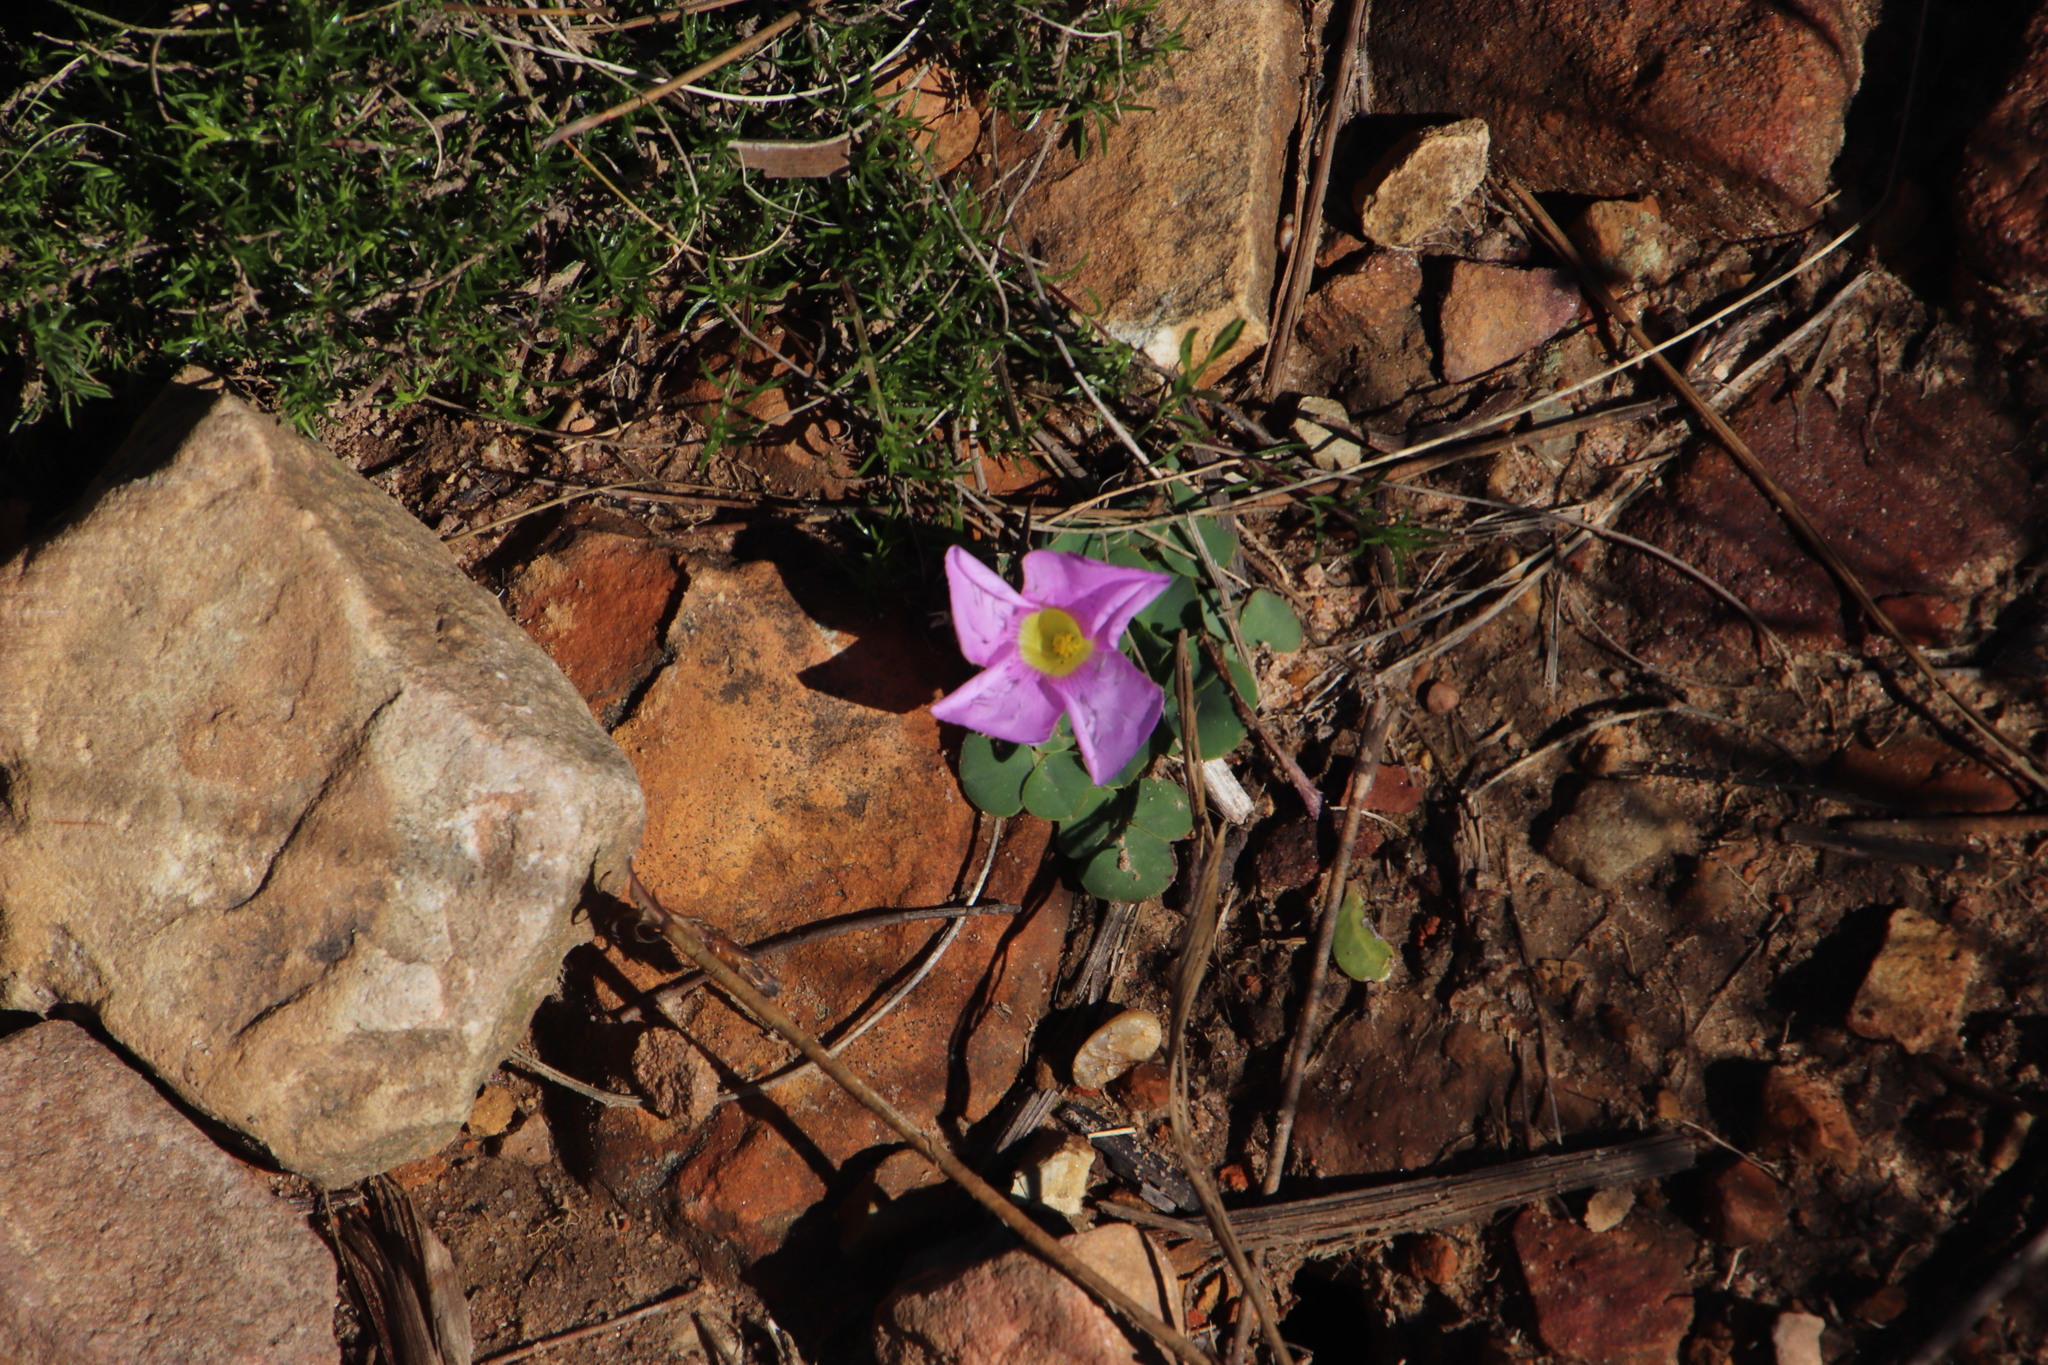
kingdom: Plantae
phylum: Tracheophyta
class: Magnoliopsida
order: Oxalidales
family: Oxalidaceae
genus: Oxalis
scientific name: Oxalis purpurea
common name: Purple woodsorrel
